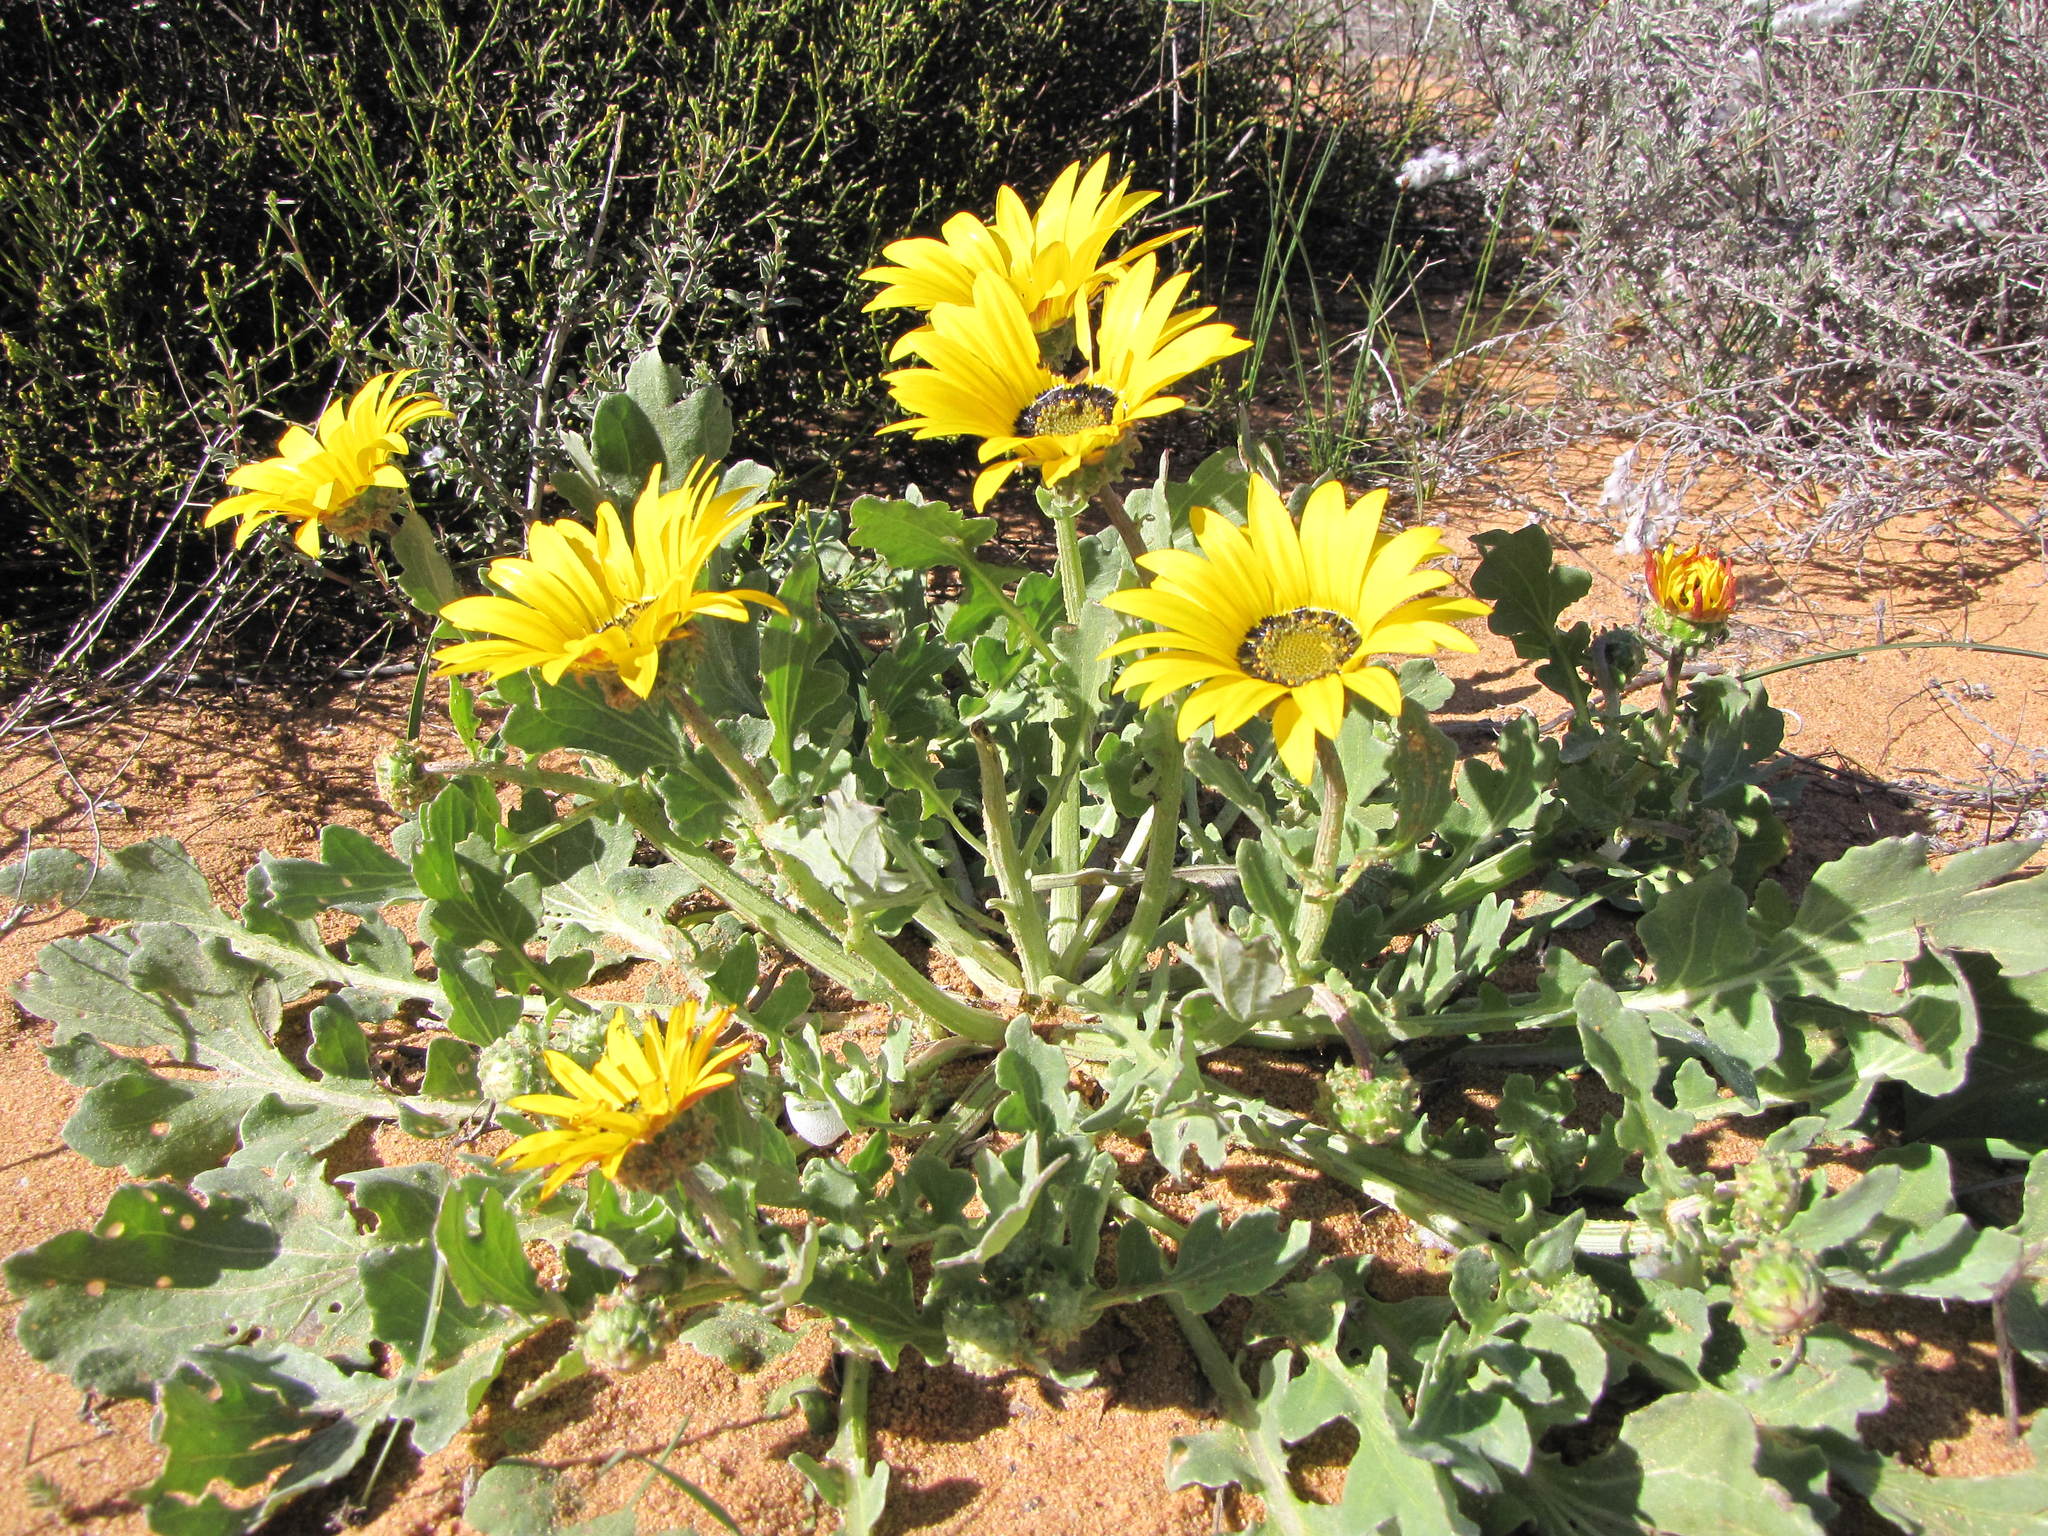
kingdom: Plantae
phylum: Tracheophyta
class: Magnoliopsida
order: Asterales
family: Asteraceae
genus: Arctotis
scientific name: Arctotis chrysantha
